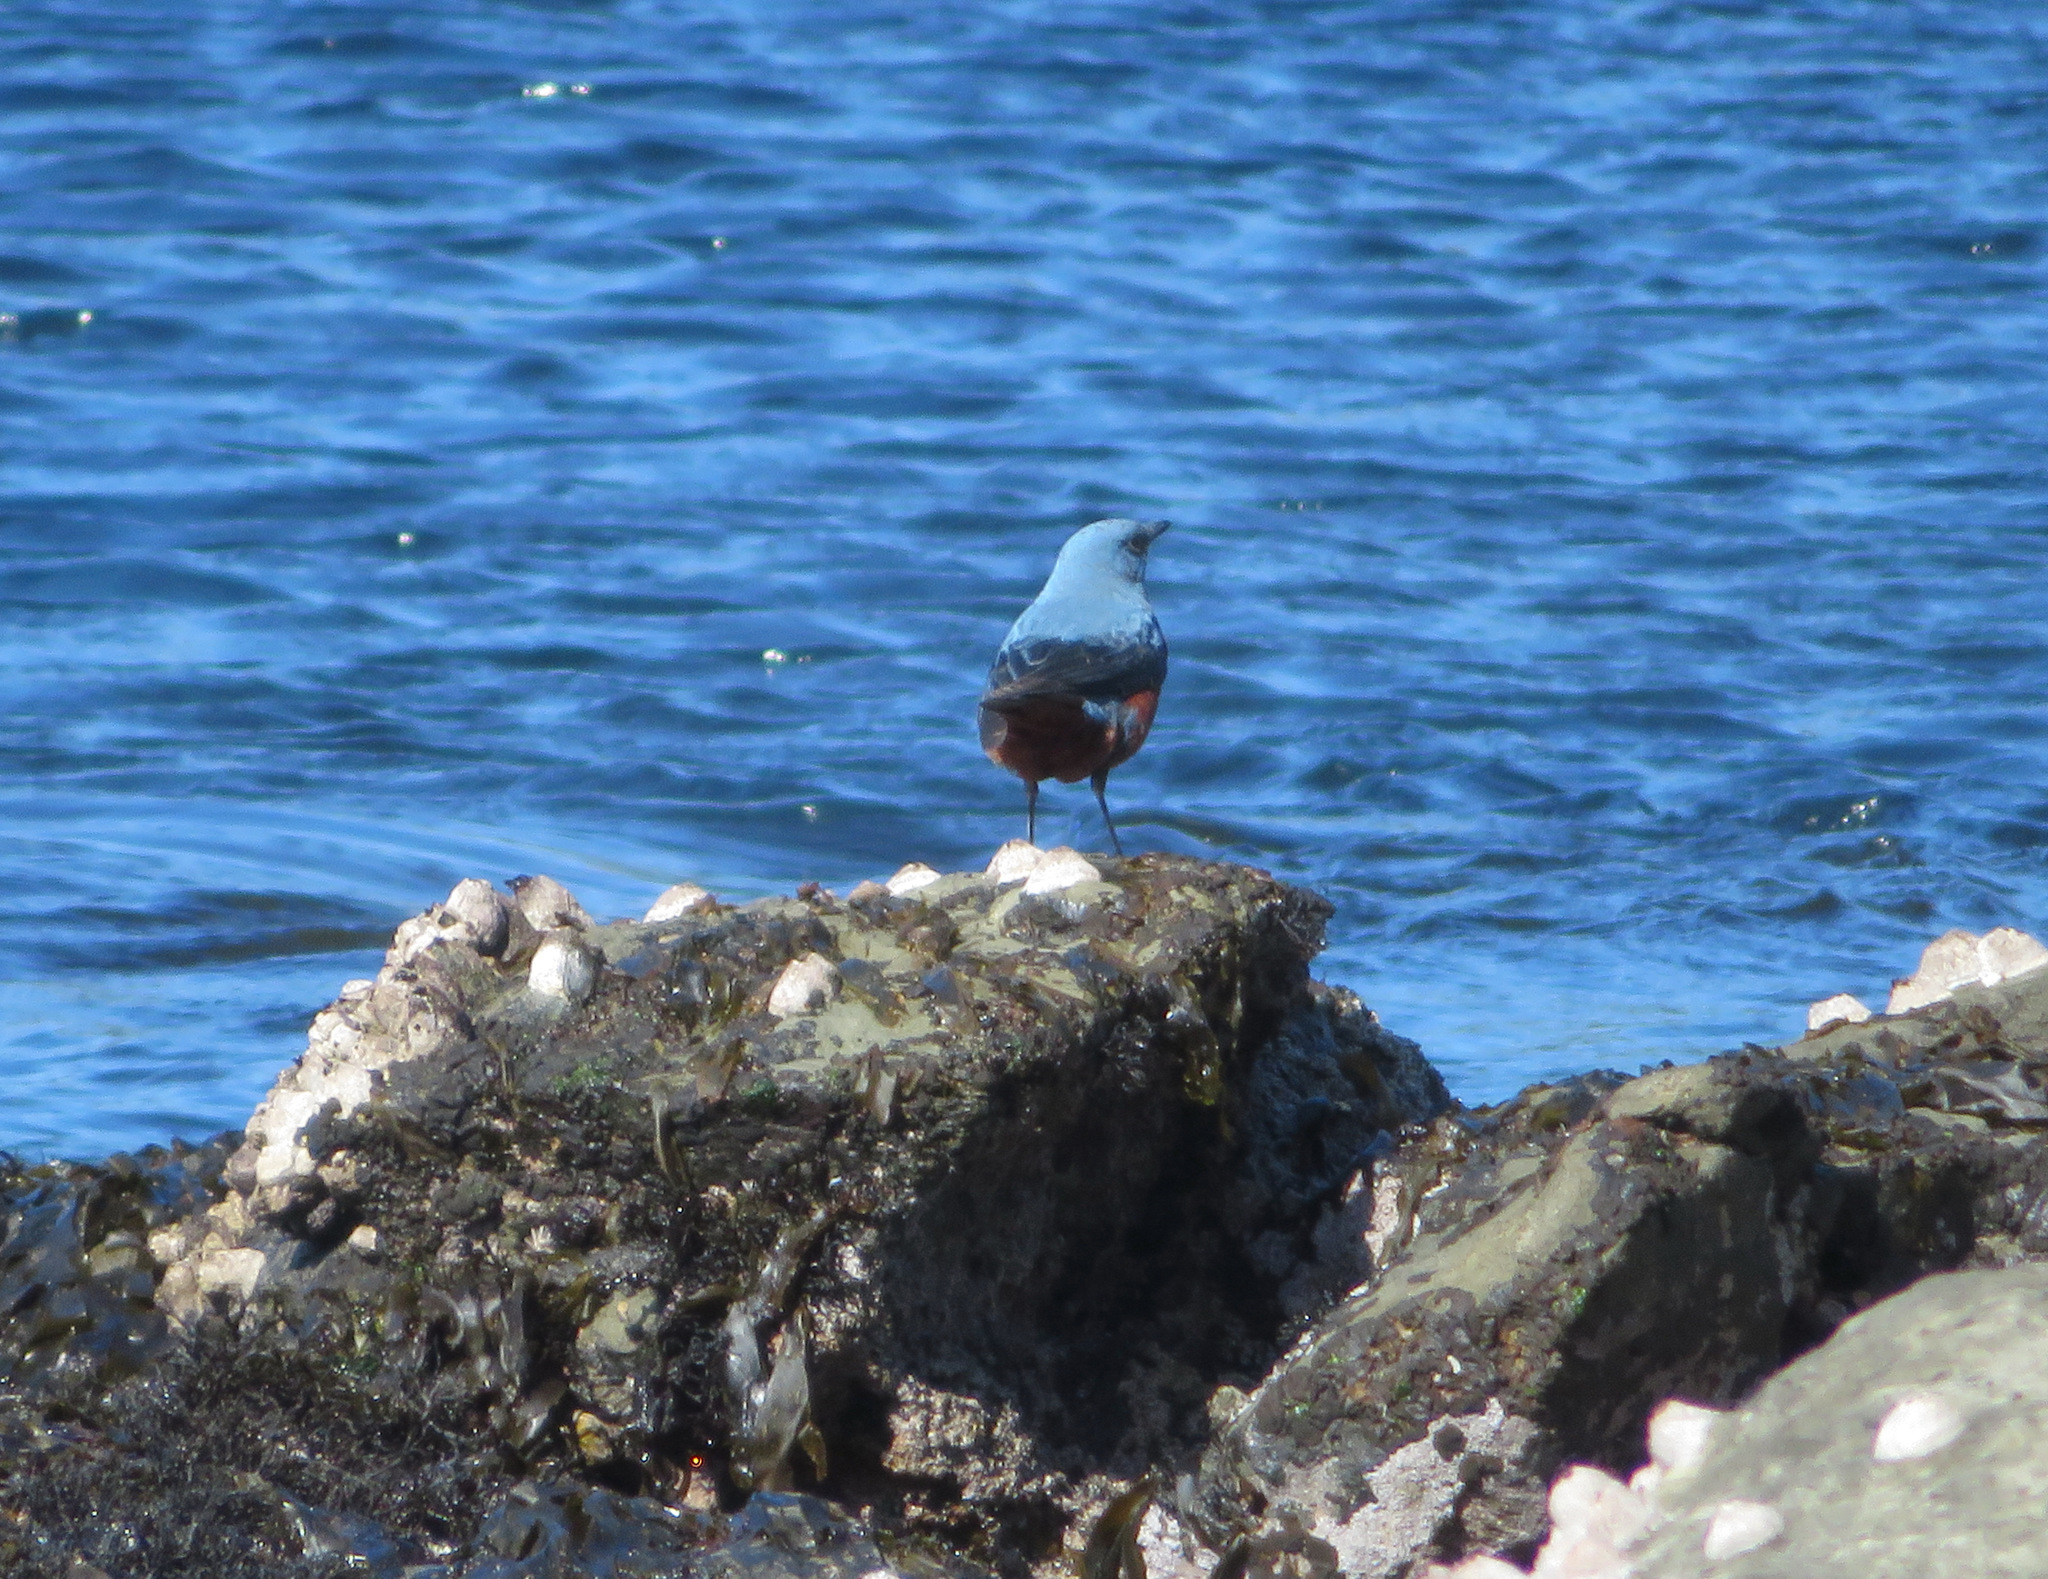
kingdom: Animalia
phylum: Chordata
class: Aves
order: Passeriformes
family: Muscicapidae
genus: Monticola
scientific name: Monticola solitarius
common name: Blue rock thrush
